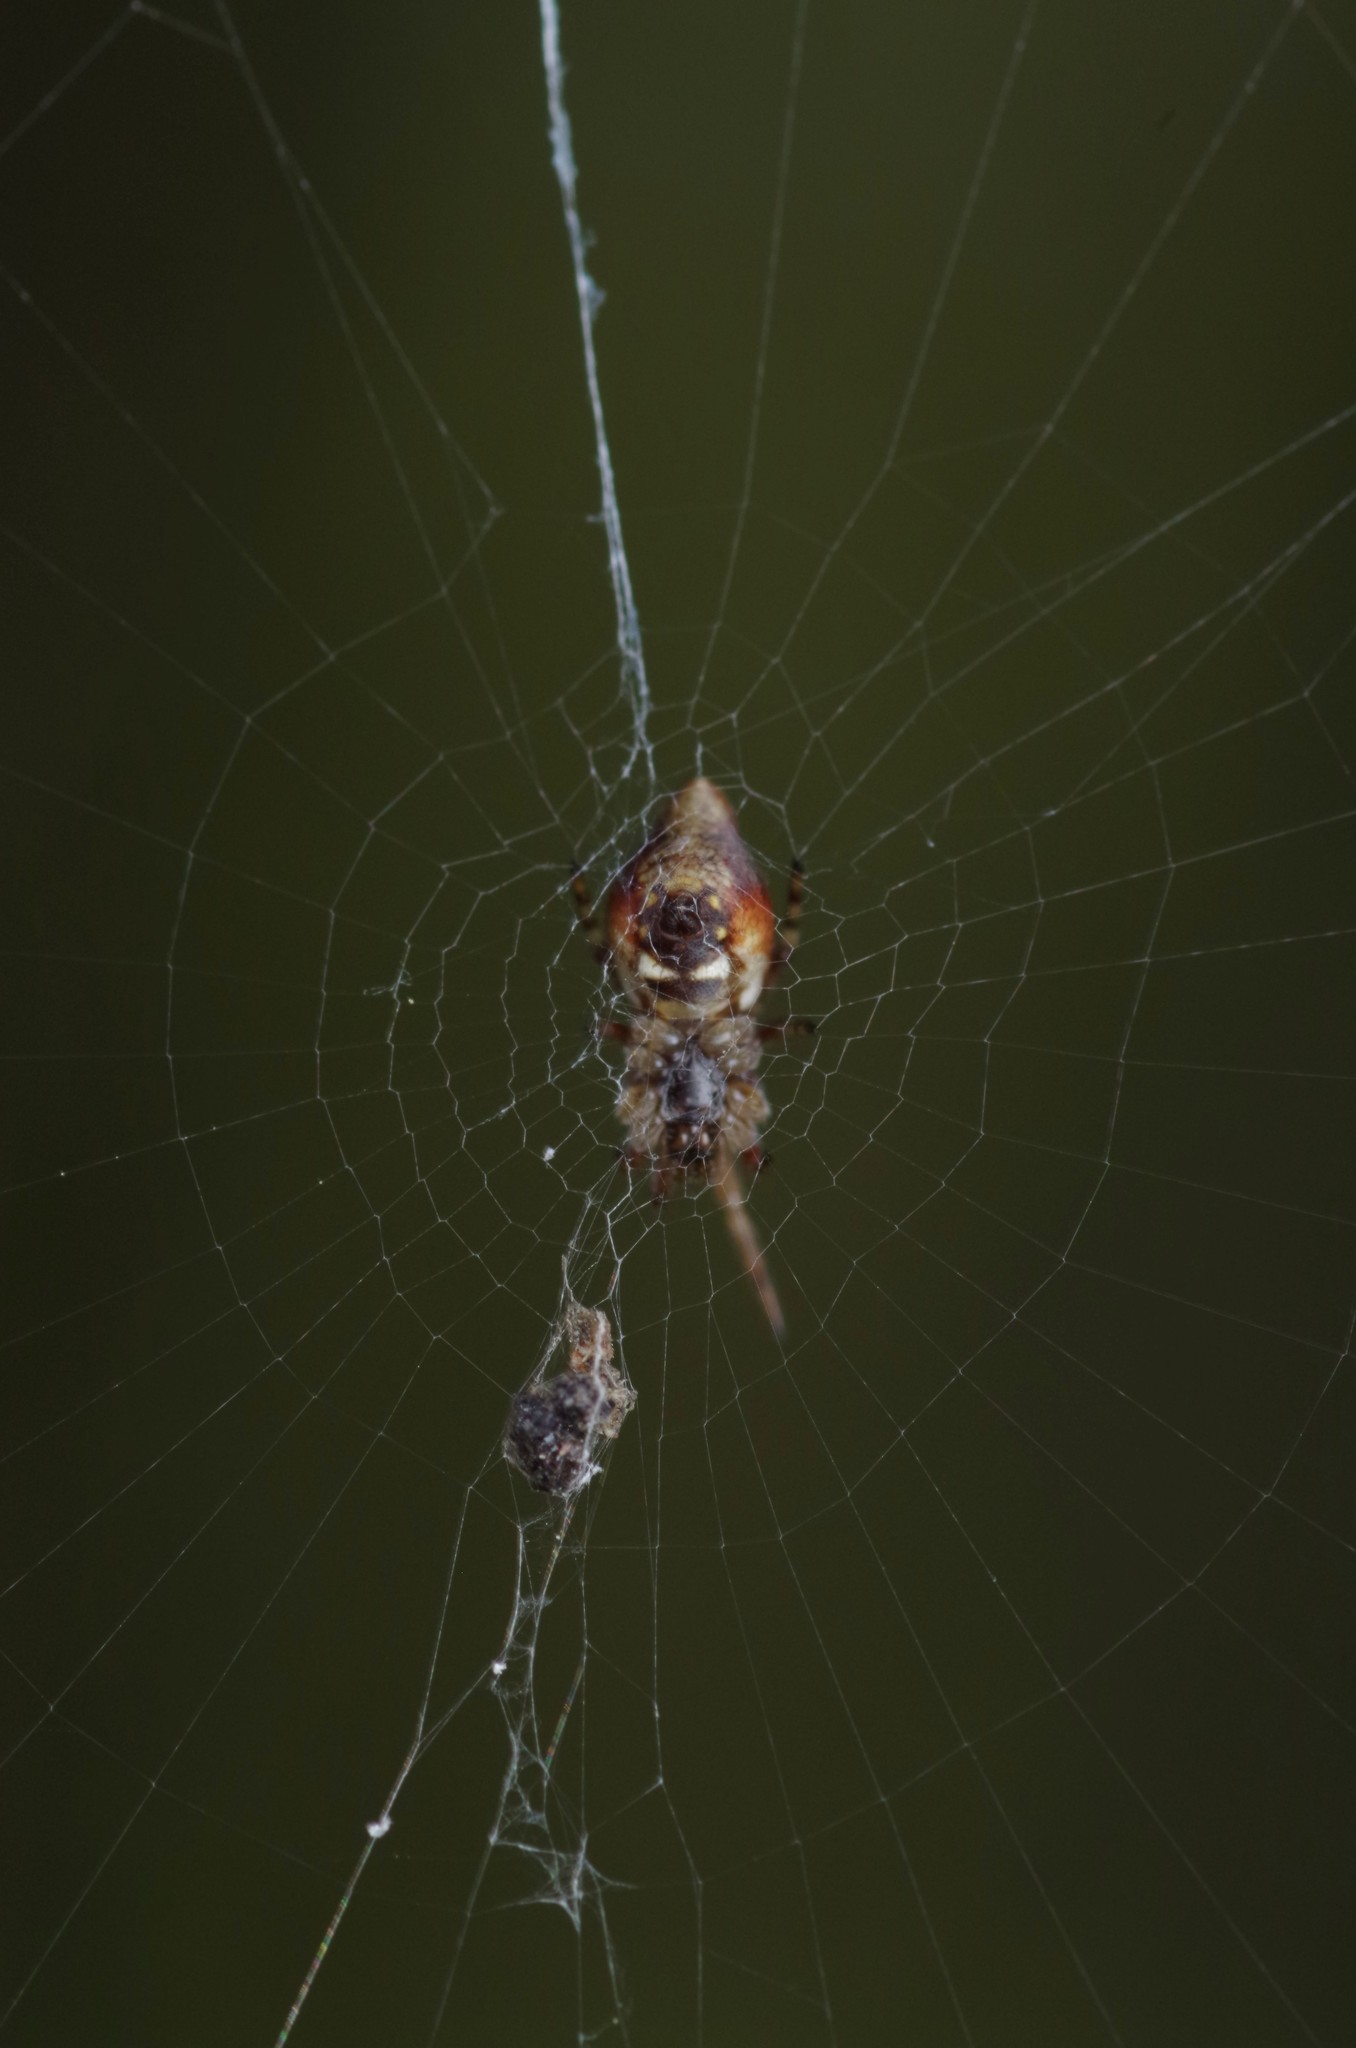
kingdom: Animalia
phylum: Arthropoda
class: Arachnida
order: Araneae
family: Araneidae
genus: Cyclosa
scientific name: Cyclosa conica
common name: Conical trashline orbweaver
